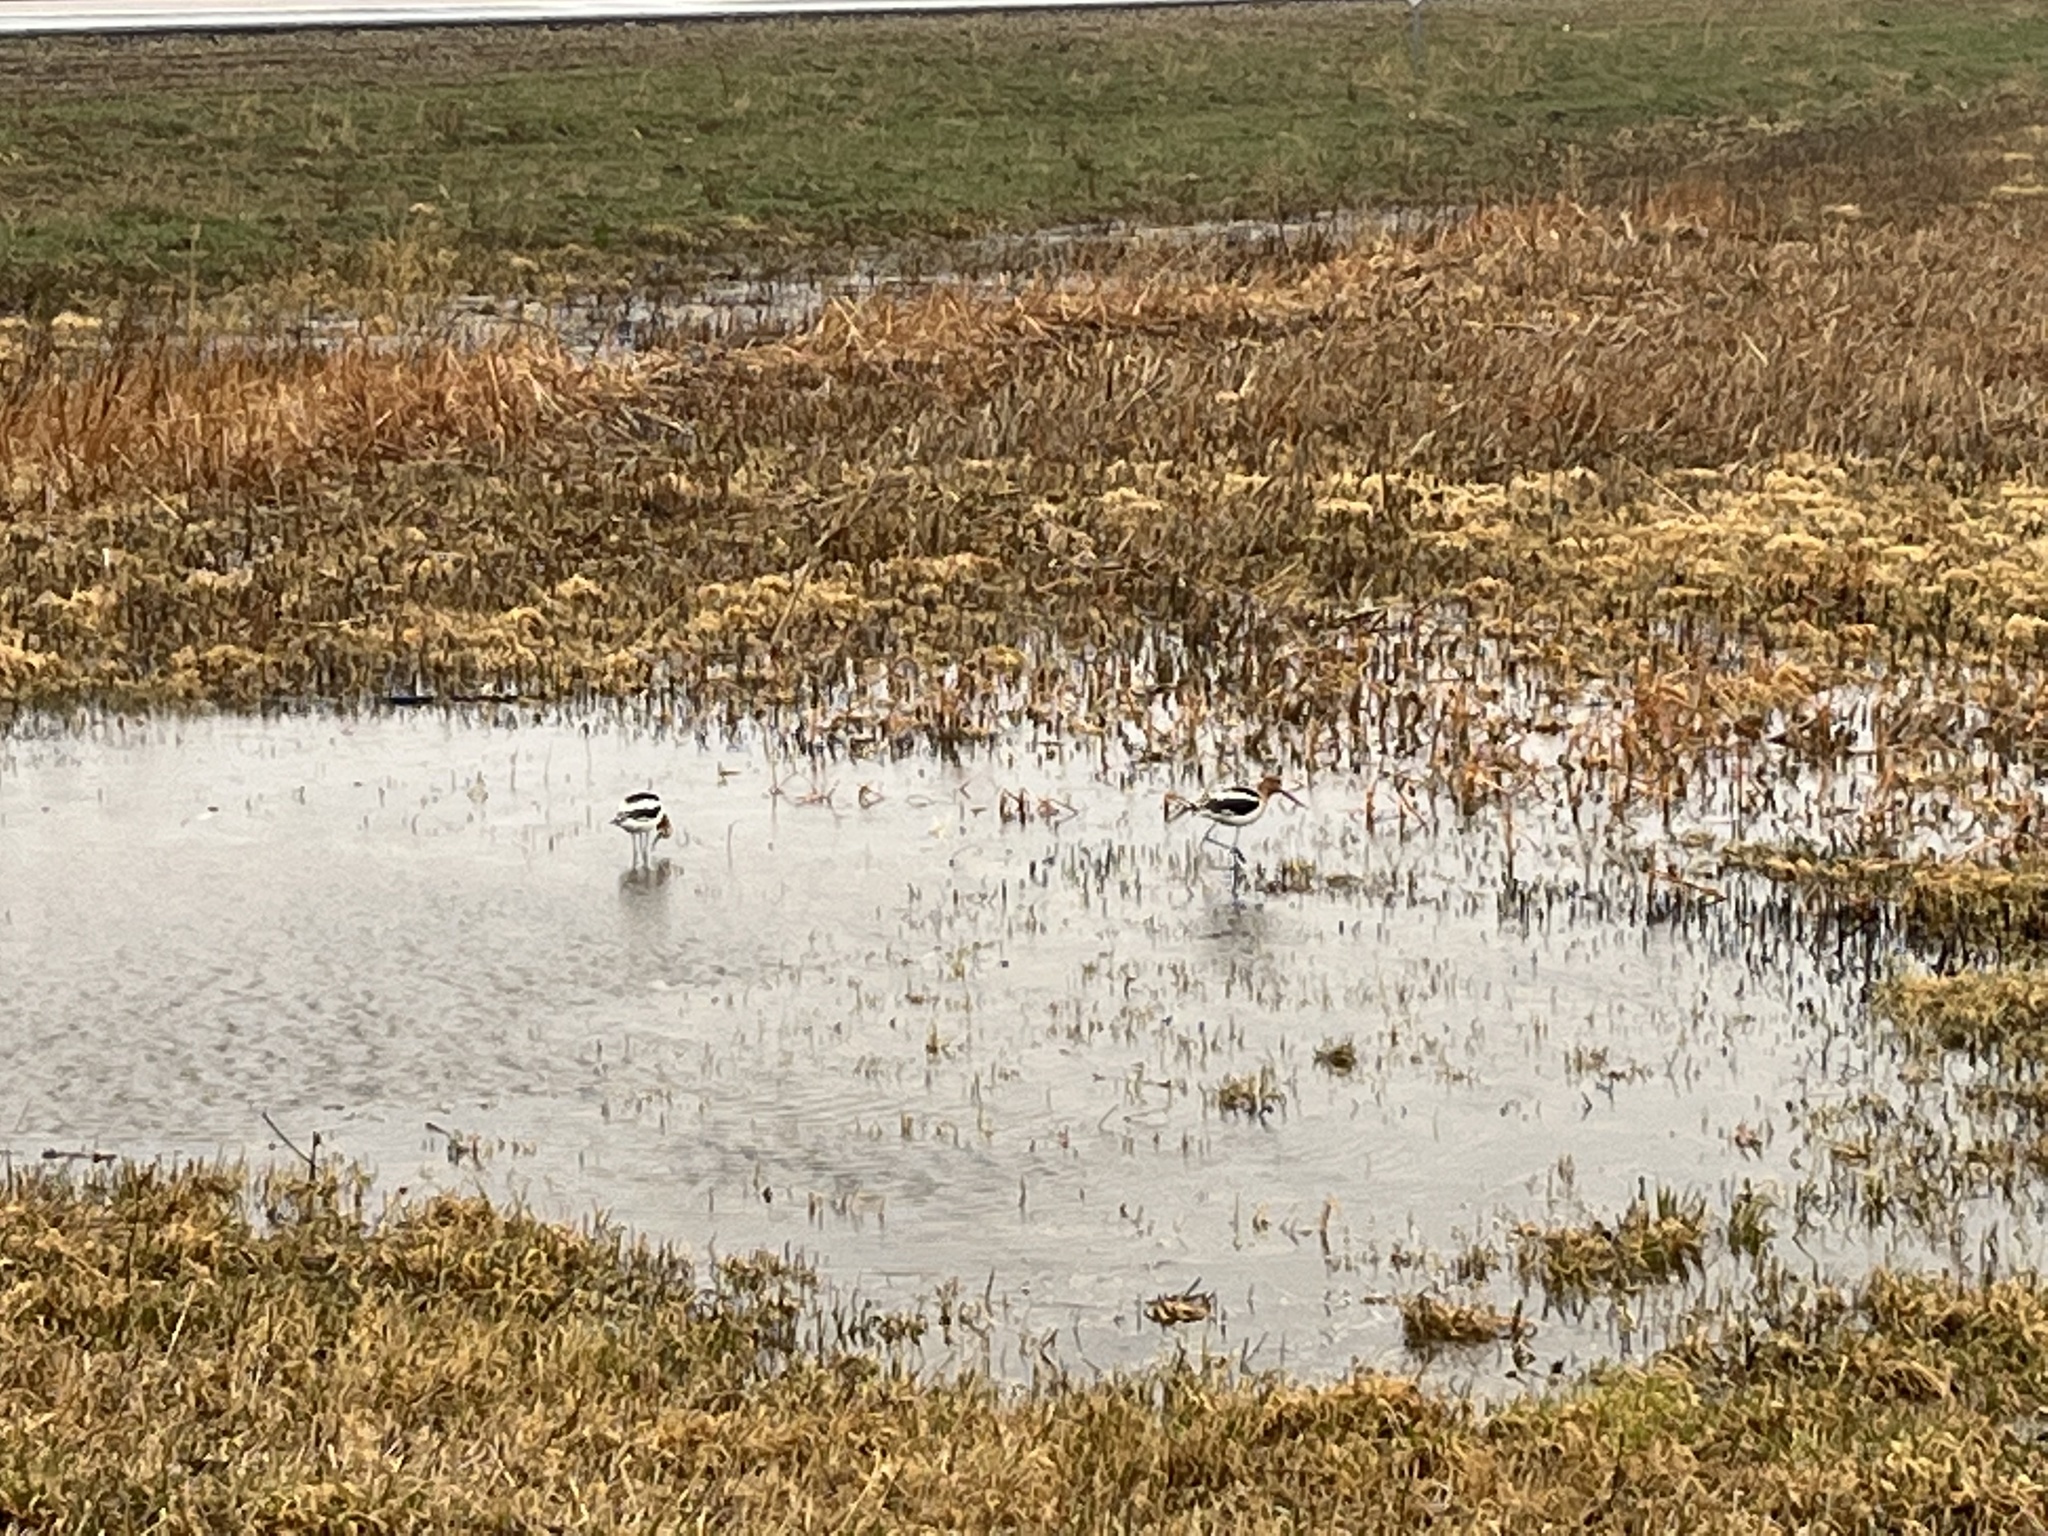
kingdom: Animalia
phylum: Chordata
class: Aves
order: Charadriiformes
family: Recurvirostridae
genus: Recurvirostra
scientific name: Recurvirostra americana
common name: American avocet
